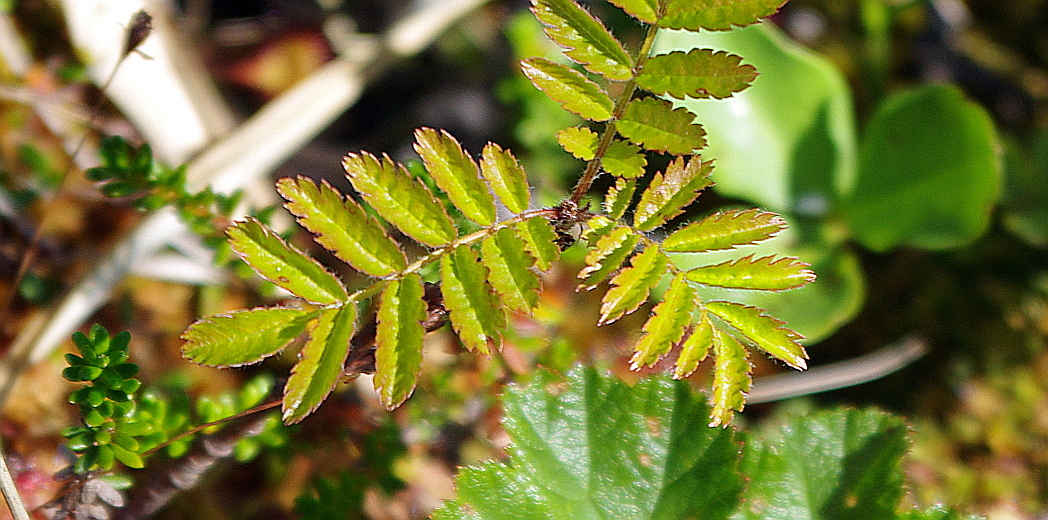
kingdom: Plantae
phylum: Tracheophyta
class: Magnoliopsida
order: Rosales
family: Rosaceae
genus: Sorbus
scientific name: Sorbus aucuparia
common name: Rowan
